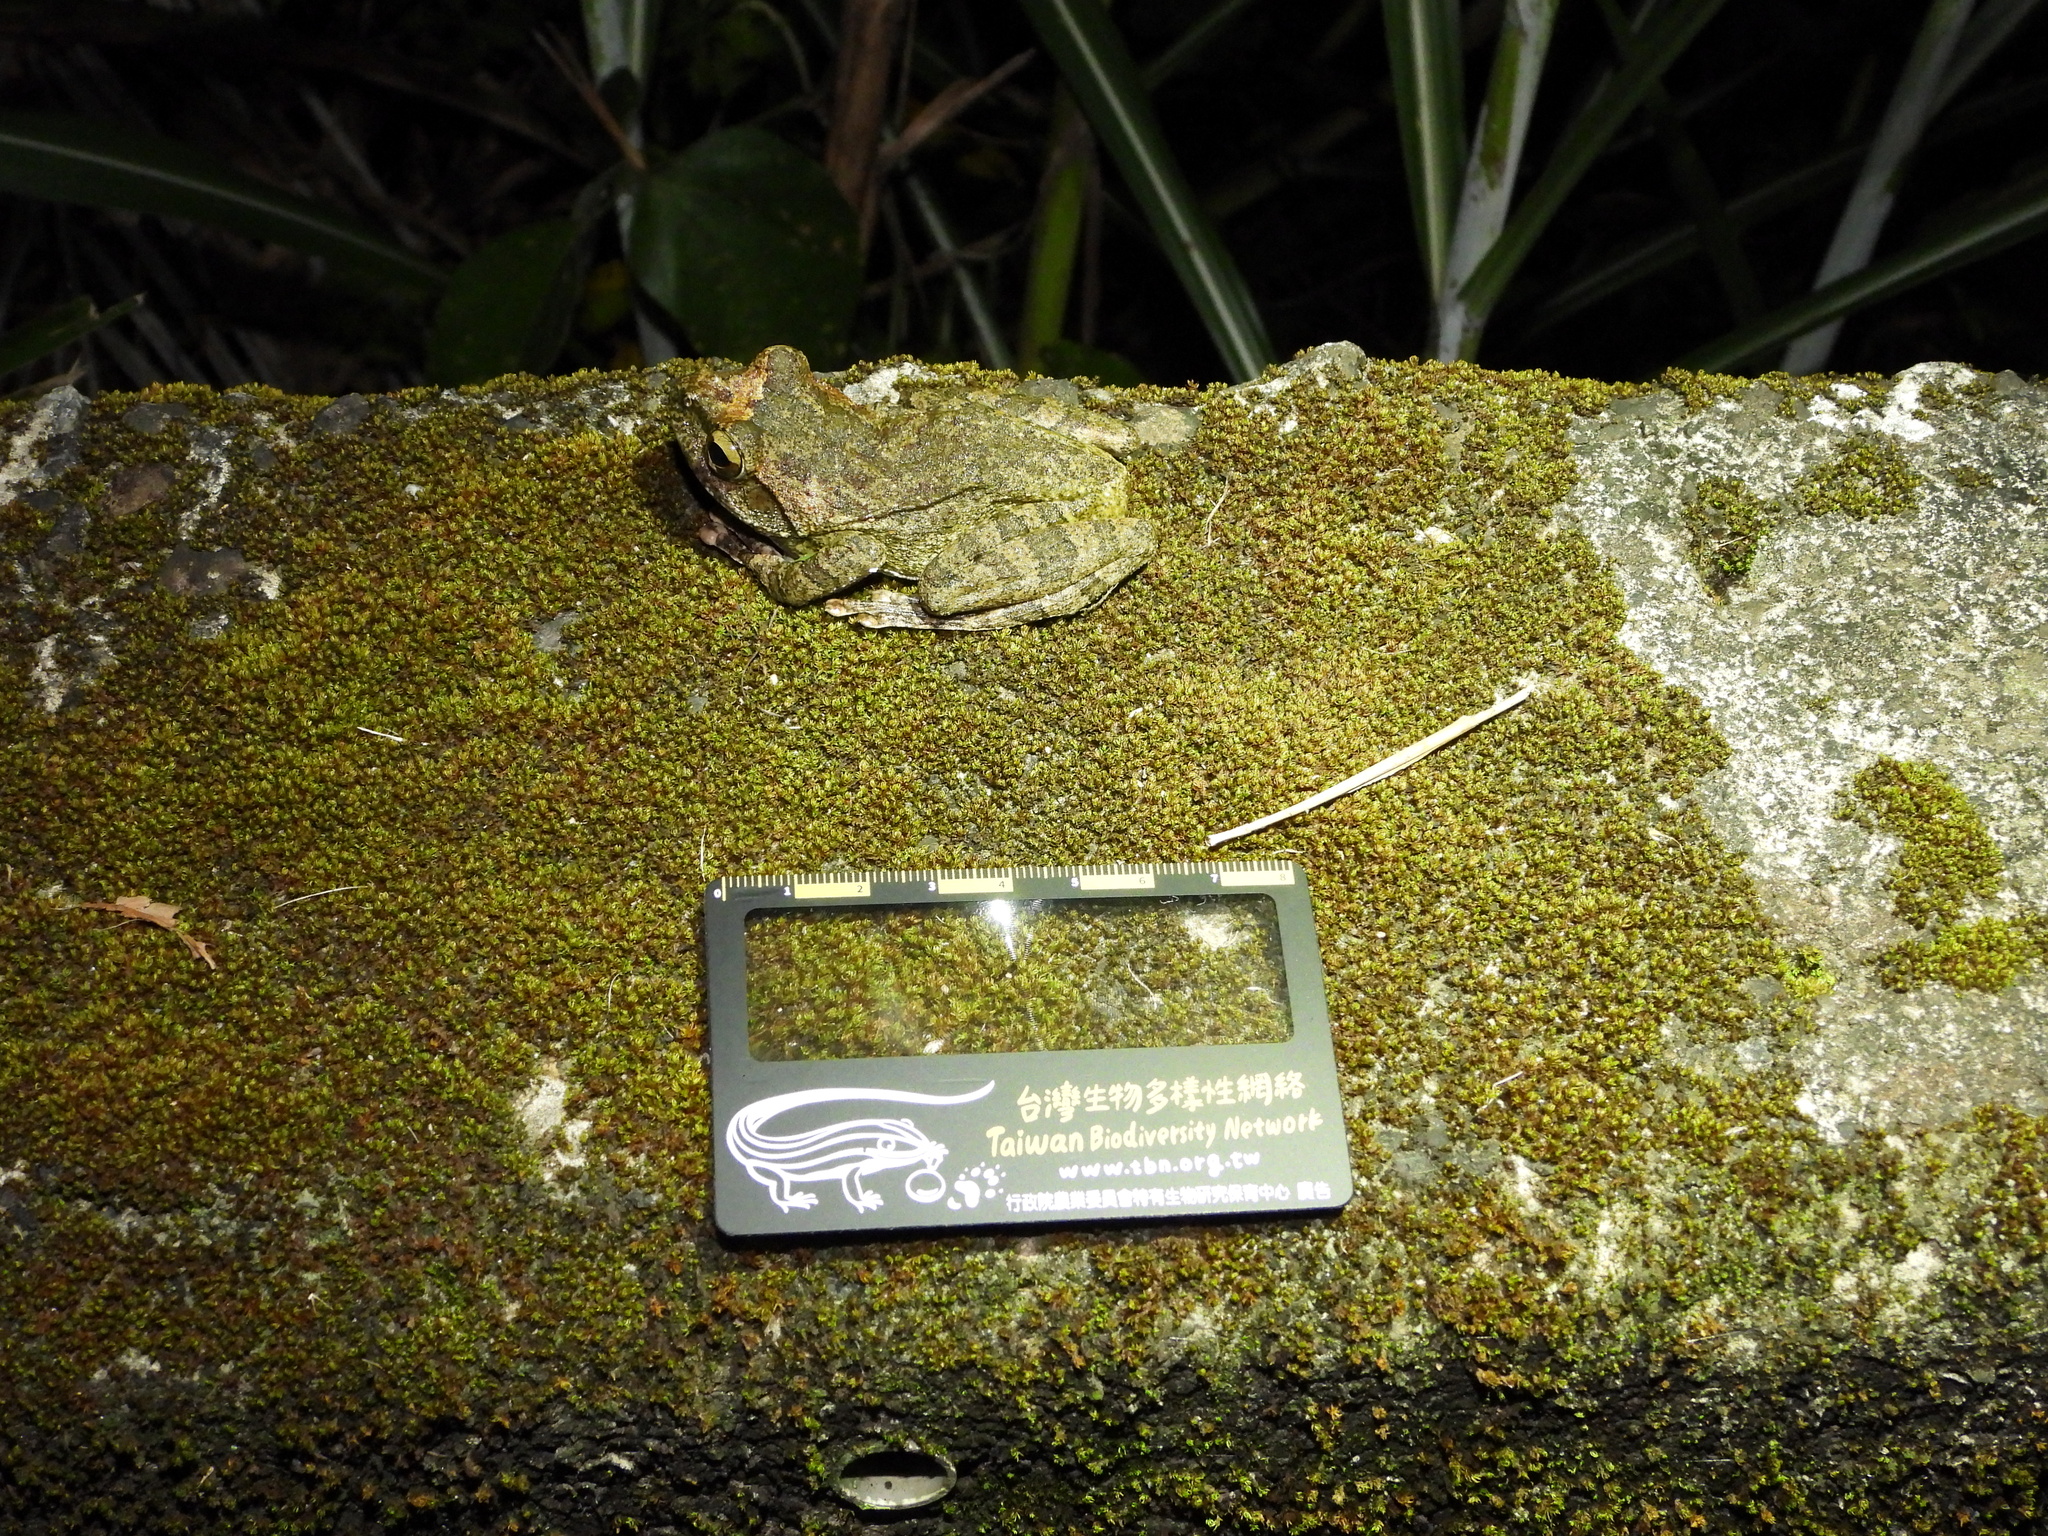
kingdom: Animalia
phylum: Chordata
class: Amphibia
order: Anura
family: Rhacophoridae
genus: Buergeria
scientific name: Buergeria robusta
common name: Brown treefrog
